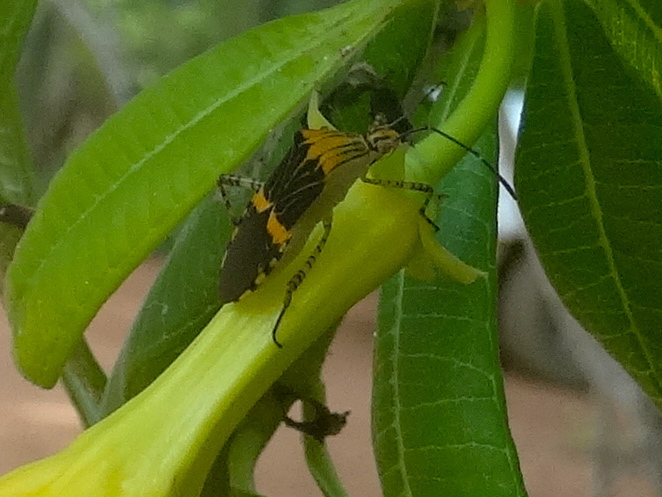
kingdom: Animalia
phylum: Arthropoda
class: Insecta
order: Hemiptera
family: Coreidae
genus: Hypselonotus
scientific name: Hypselonotus lineatus
